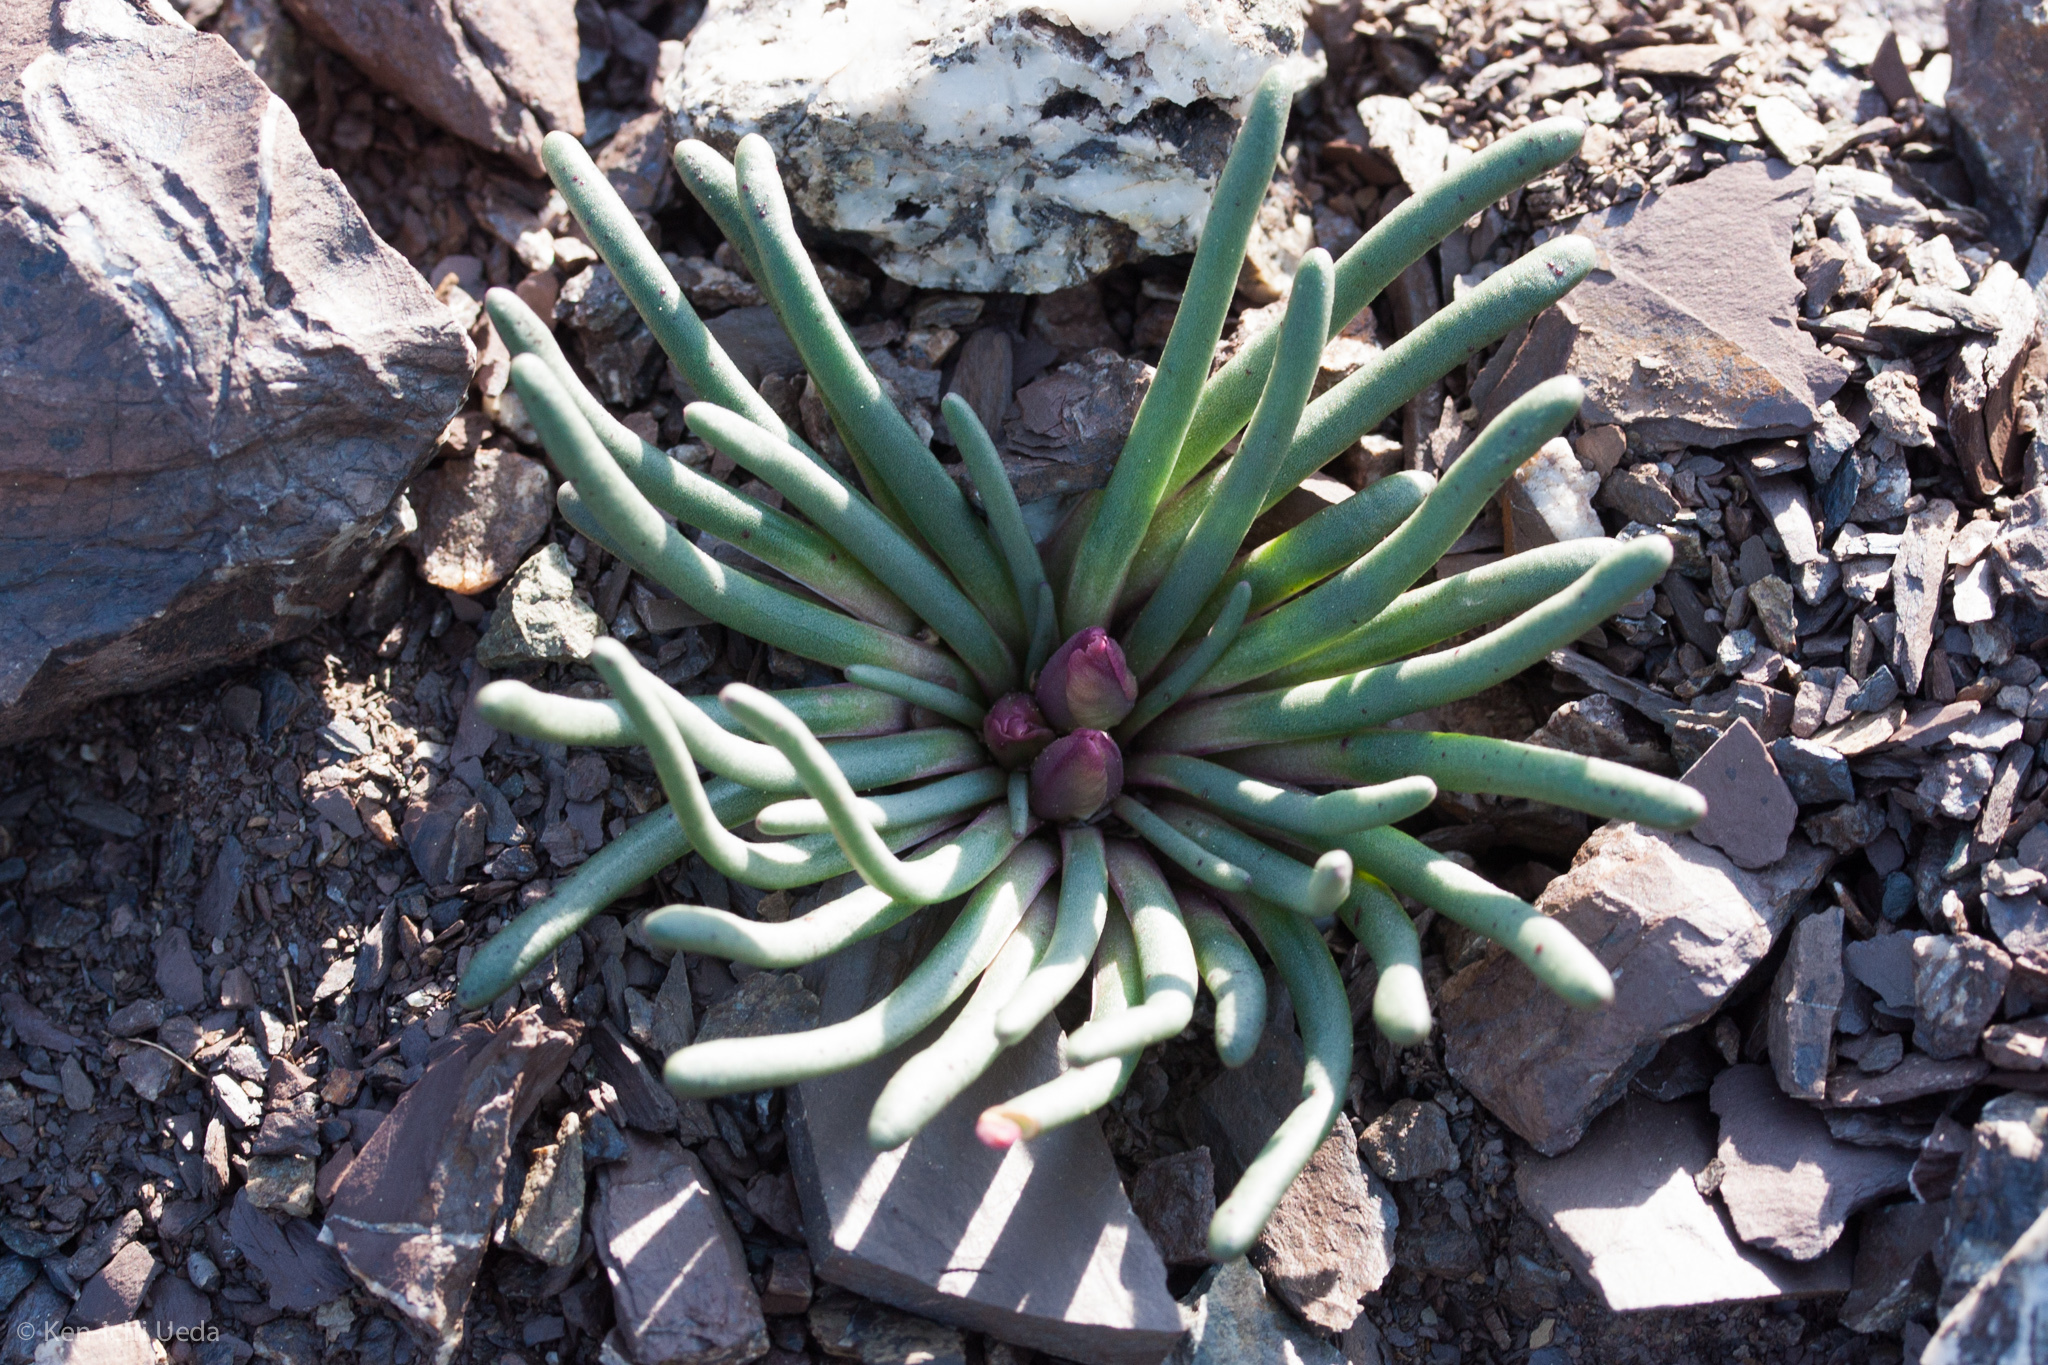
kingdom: Plantae
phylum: Tracheophyta
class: Magnoliopsida
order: Caryophyllales
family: Montiaceae
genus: Lewisia
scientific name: Lewisia rediviva
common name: Bitter-root
